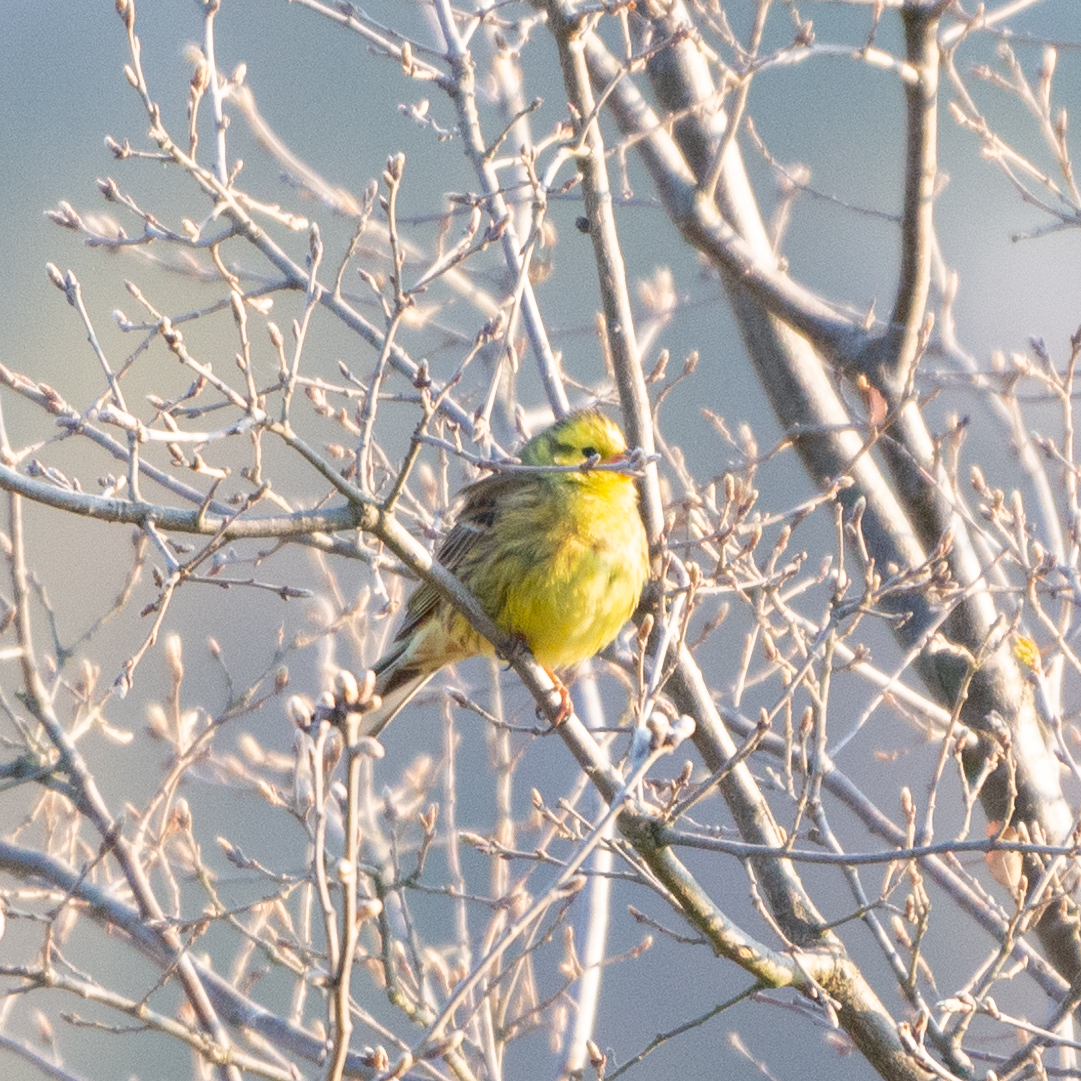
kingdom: Animalia
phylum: Chordata
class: Aves
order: Passeriformes
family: Emberizidae
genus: Emberiza
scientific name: Emberiza citrinella
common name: Yellowhammer
